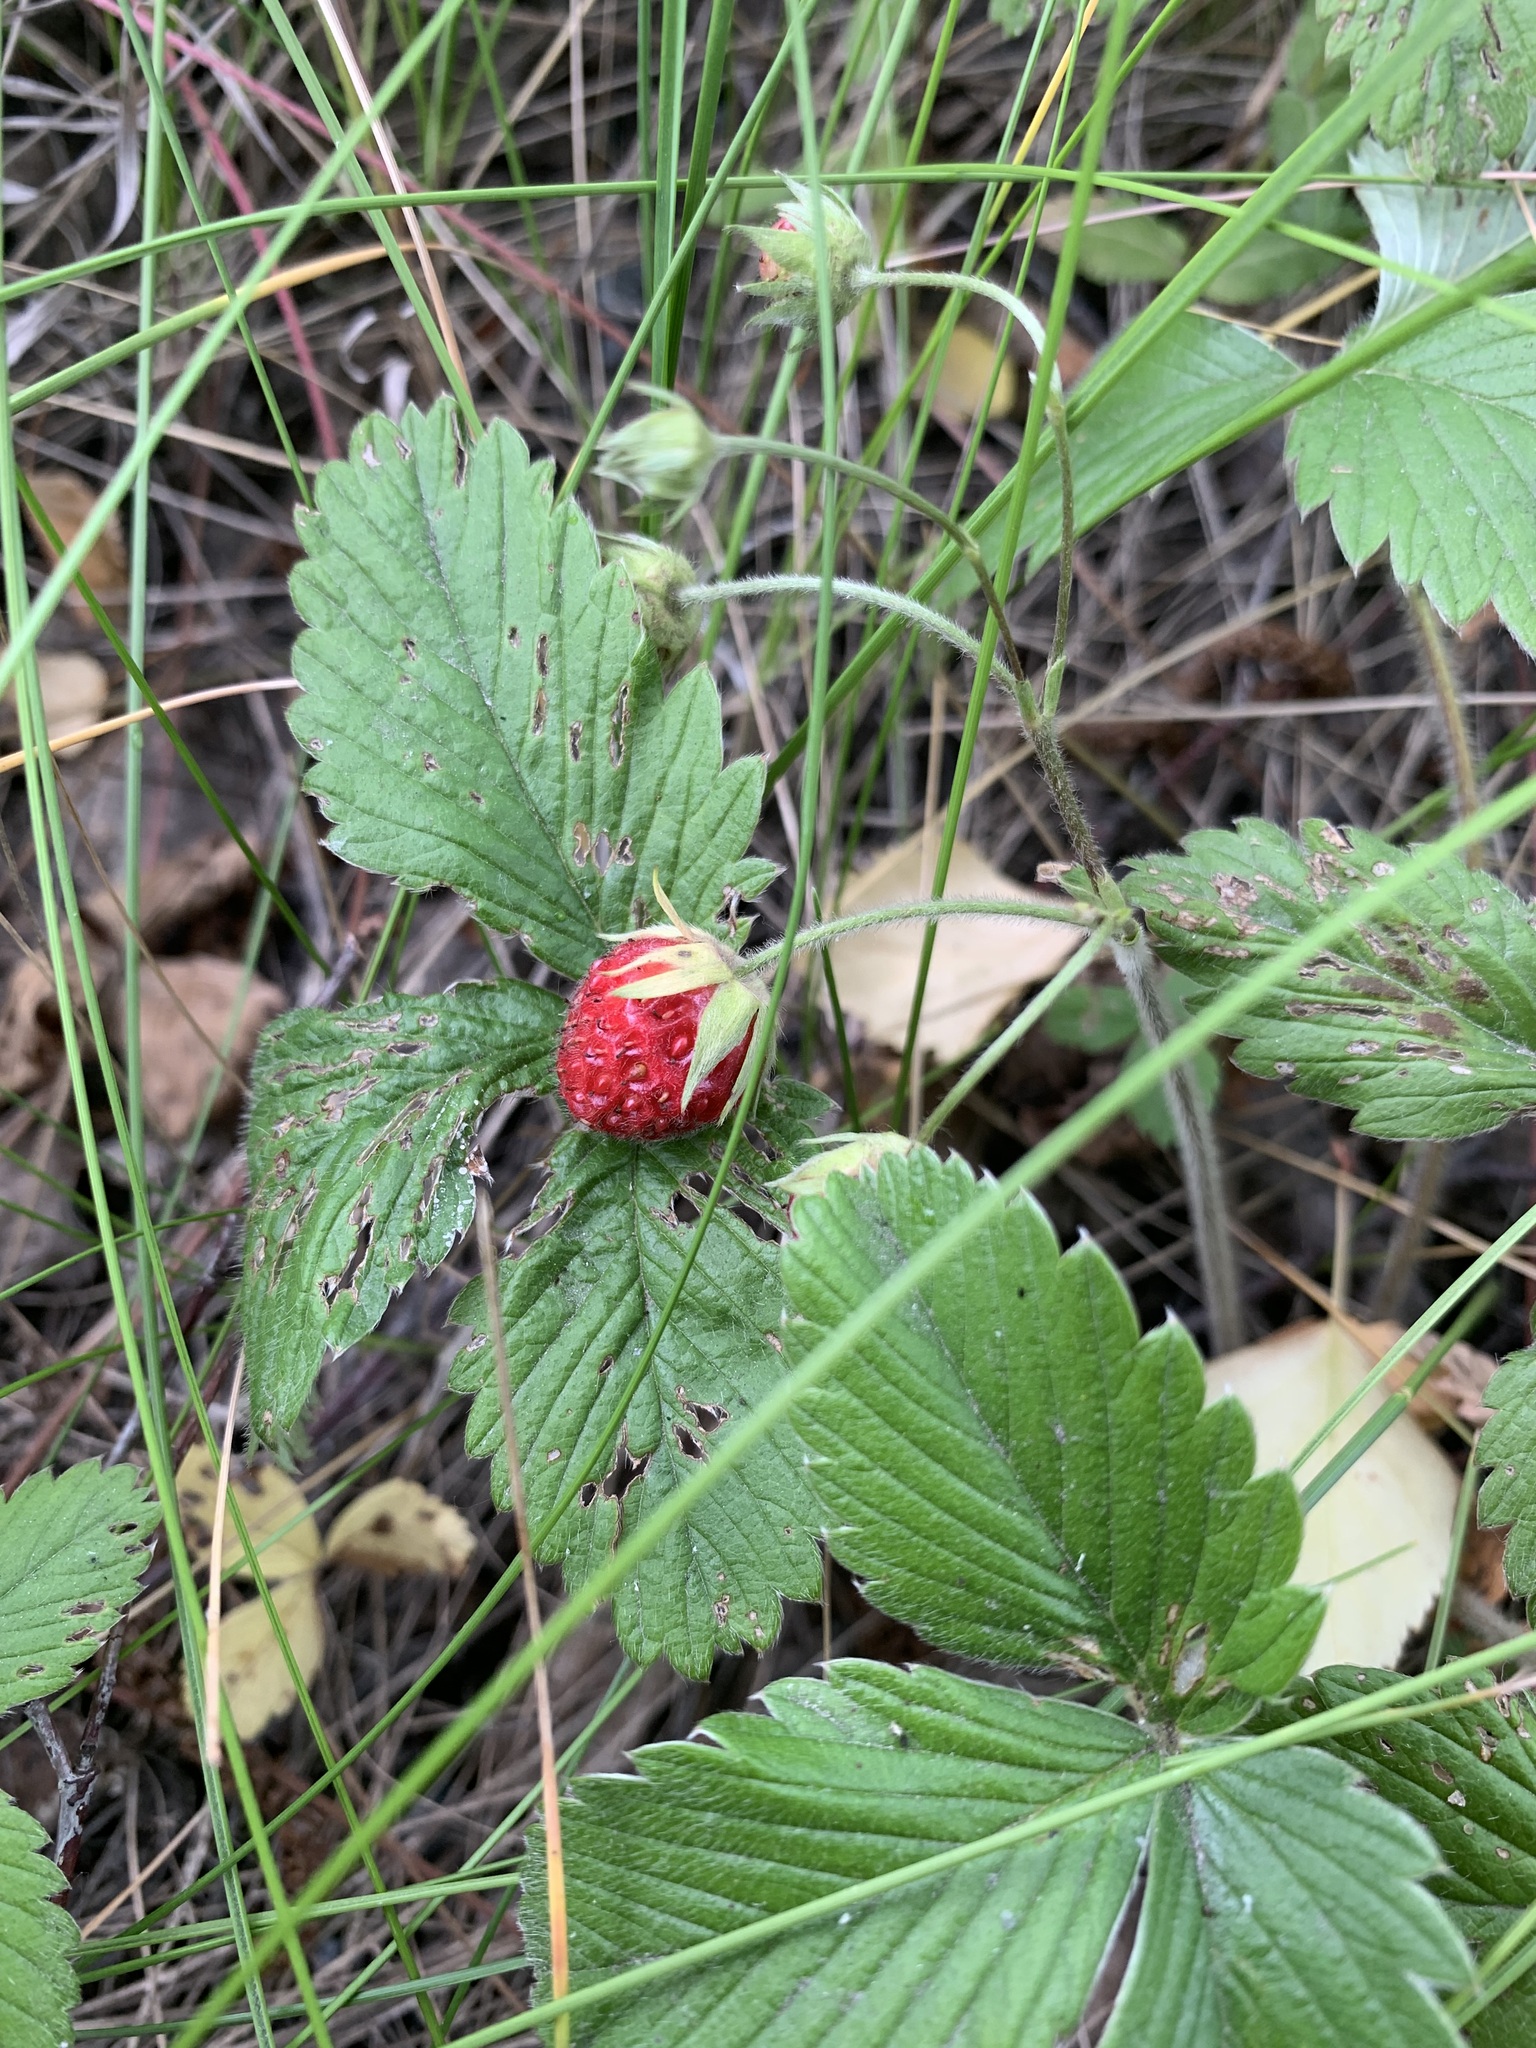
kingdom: Plantae
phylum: Tracheophyta
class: Magnoliopsida
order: Rosales
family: Rosaceae
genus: Fragaria
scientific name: Fragaria viridis
